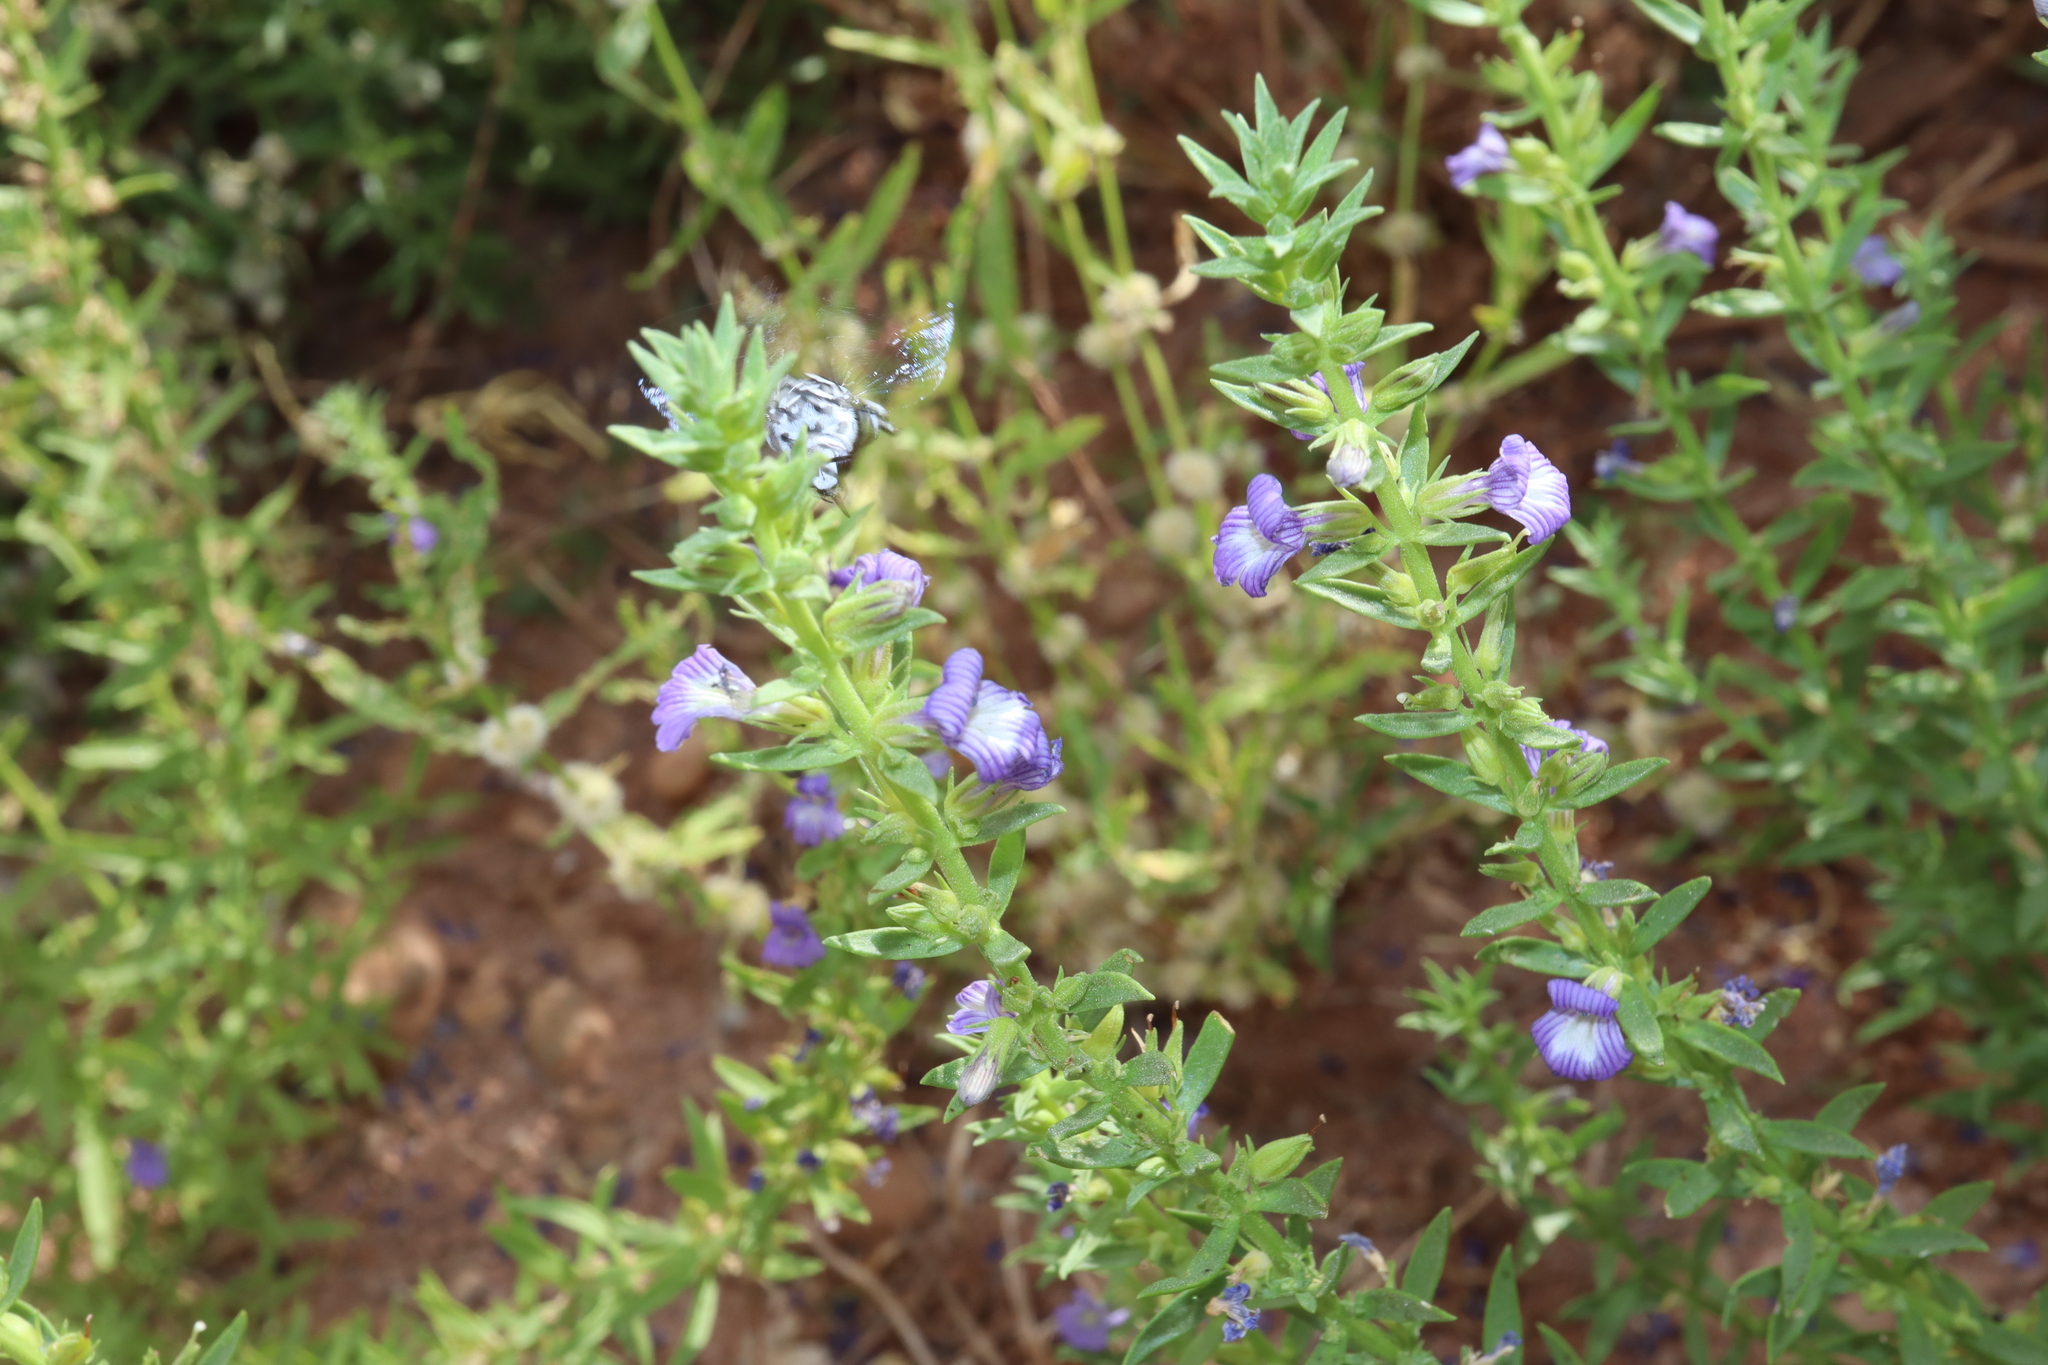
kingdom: Animalia
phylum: Arthropoda
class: Insecta
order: Hymenoptera
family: Apidae
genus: Thyreus
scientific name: Thyreus waroonensis
